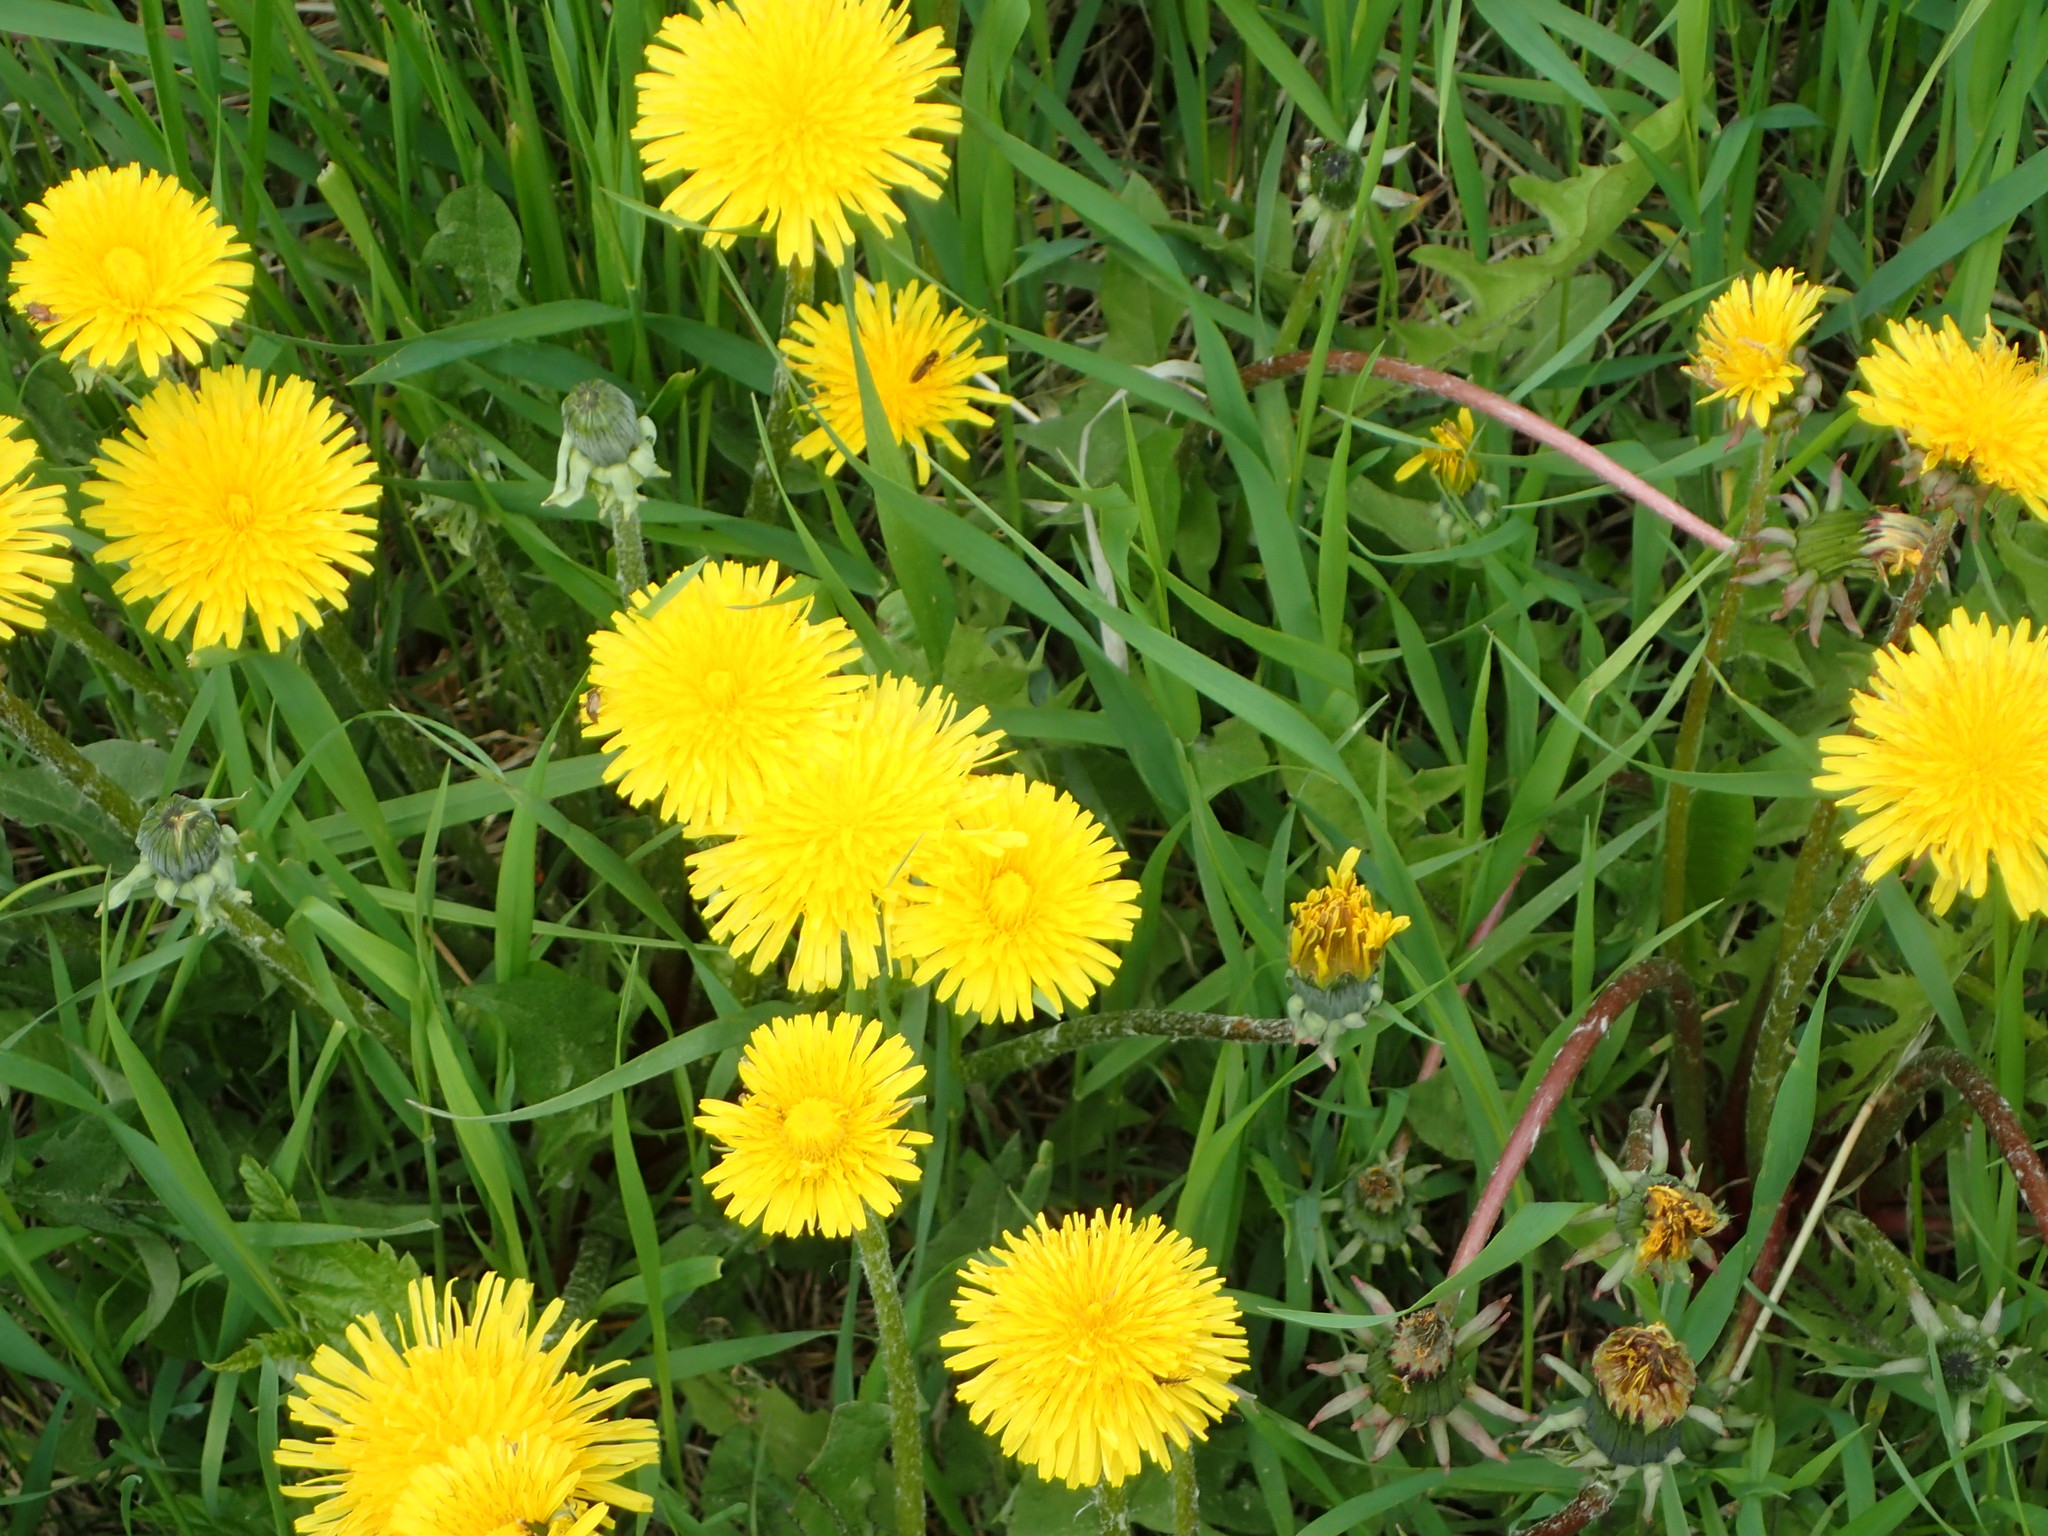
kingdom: Plantae
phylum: Tracheophyta
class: Magnoliopsida
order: Asterales
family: Asteraceae
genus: Taraxacum
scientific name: Taraxacum officinale
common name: Common dandelion
